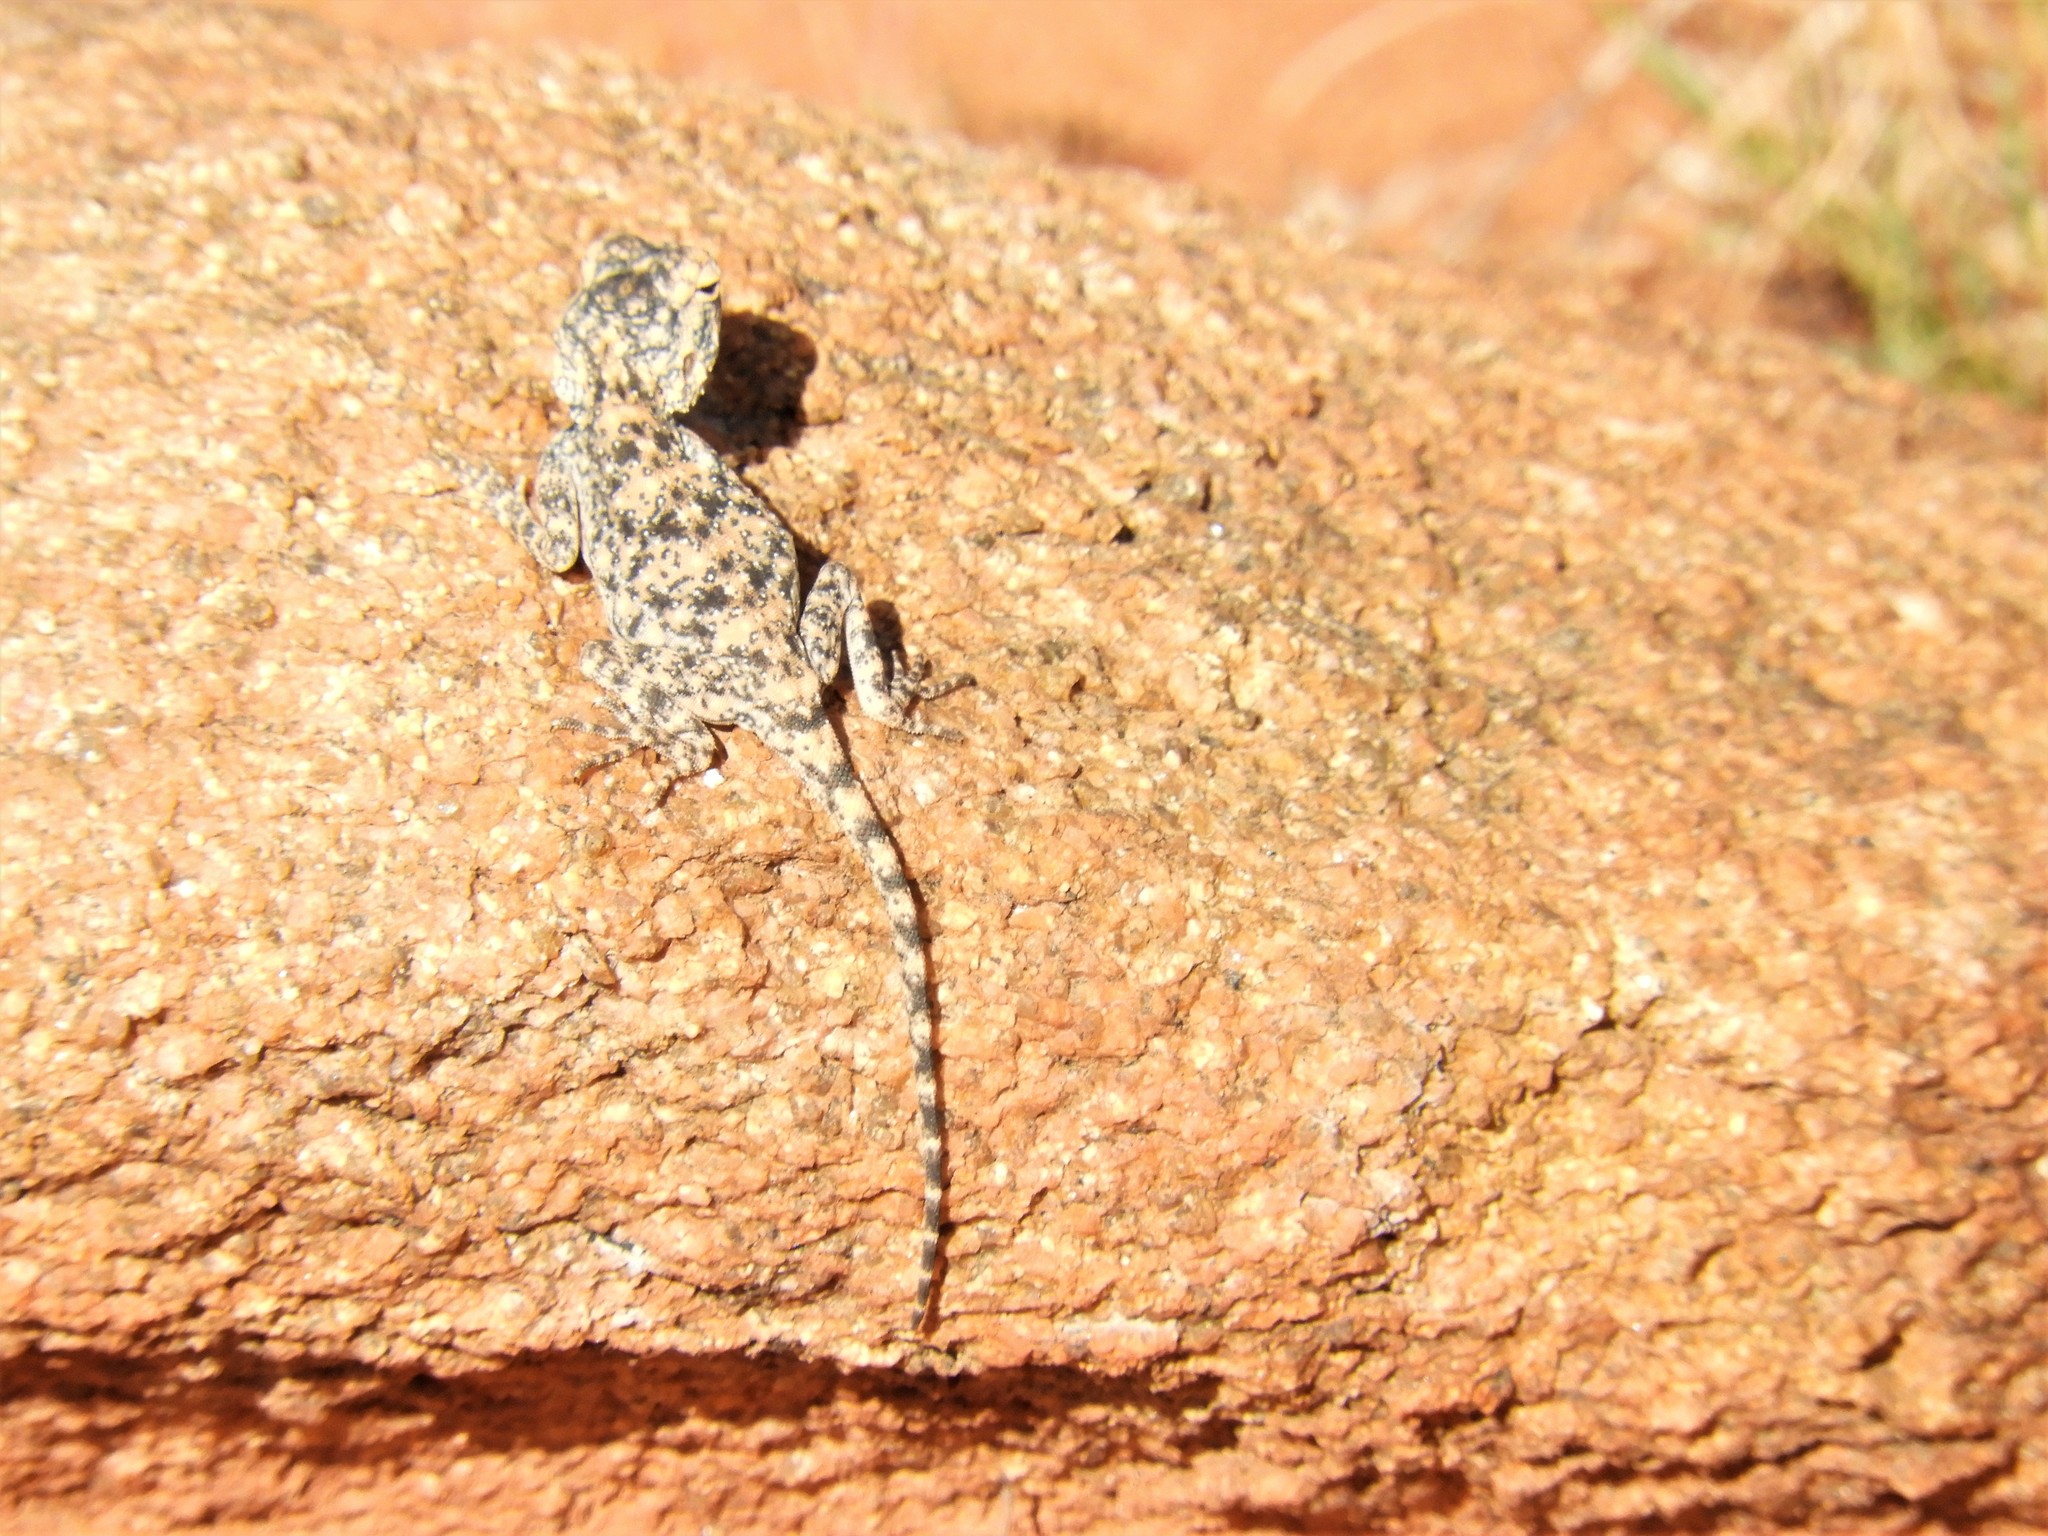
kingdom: Animalia
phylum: Chordata
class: Squamata
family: Agamidae
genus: Agama
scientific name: Agama atra
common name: Southern african rock agama
